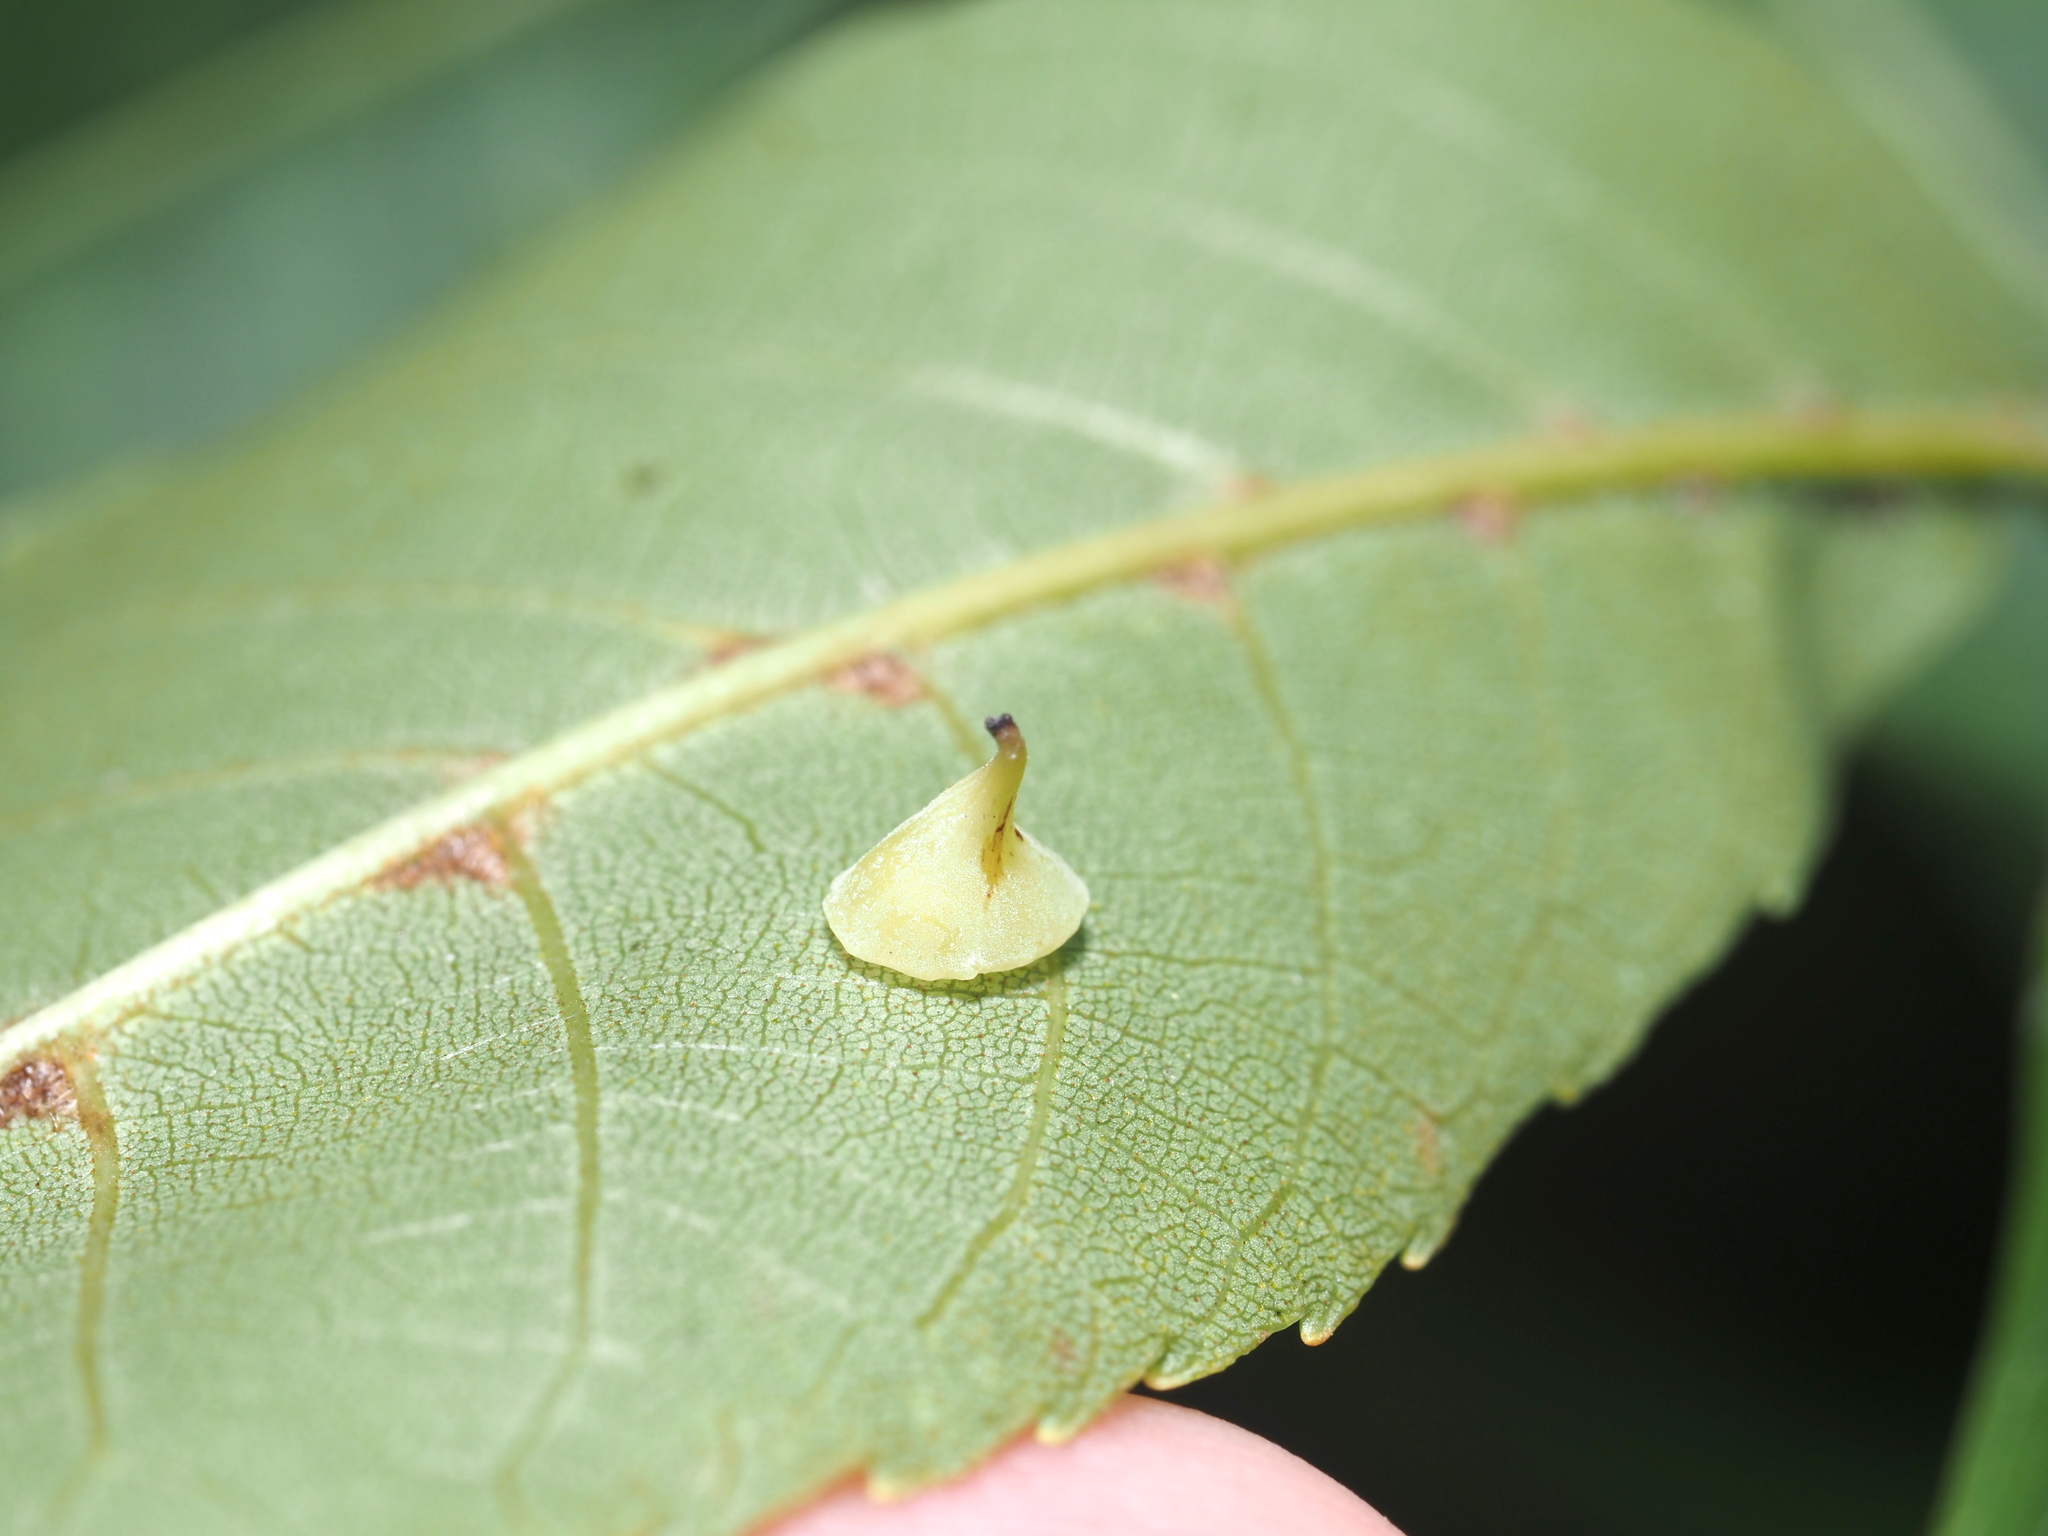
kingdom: Animalia
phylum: Arthropoda
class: Insecta
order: Diptera
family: Cecidomyiidae
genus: Caryomyia
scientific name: Caryomyia sanguinolenta
